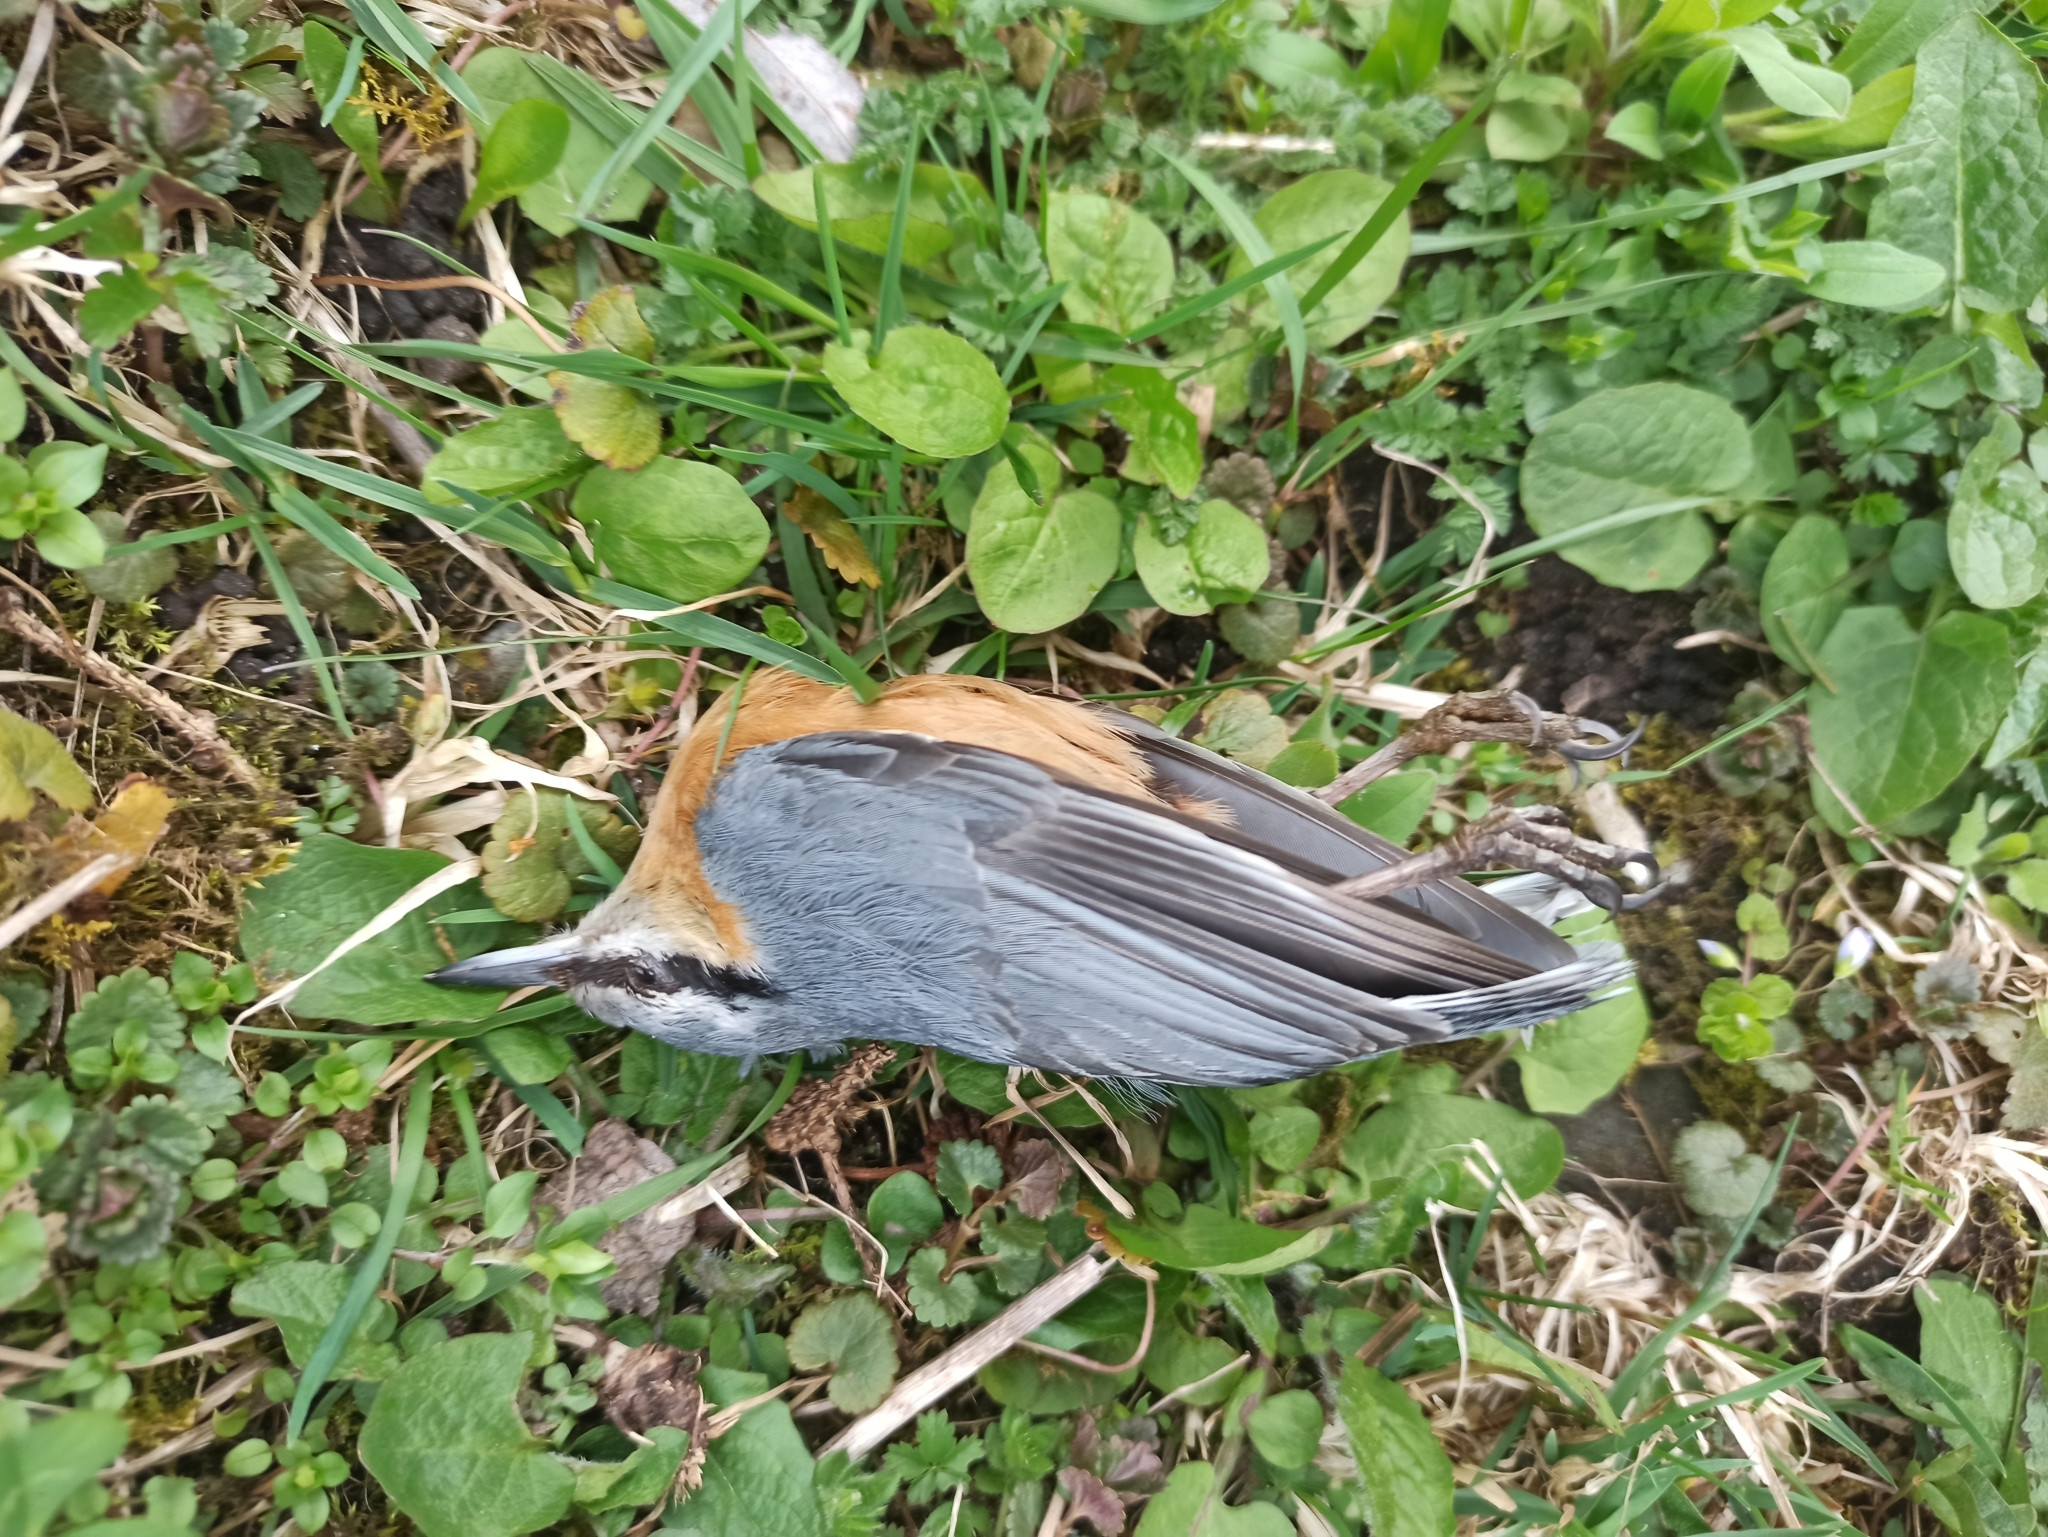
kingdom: Animalia
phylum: Chordata
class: Aves
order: Passeriformes
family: Sittidae
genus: Sitta
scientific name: Sitta europaea
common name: Eurasian nuthatch
